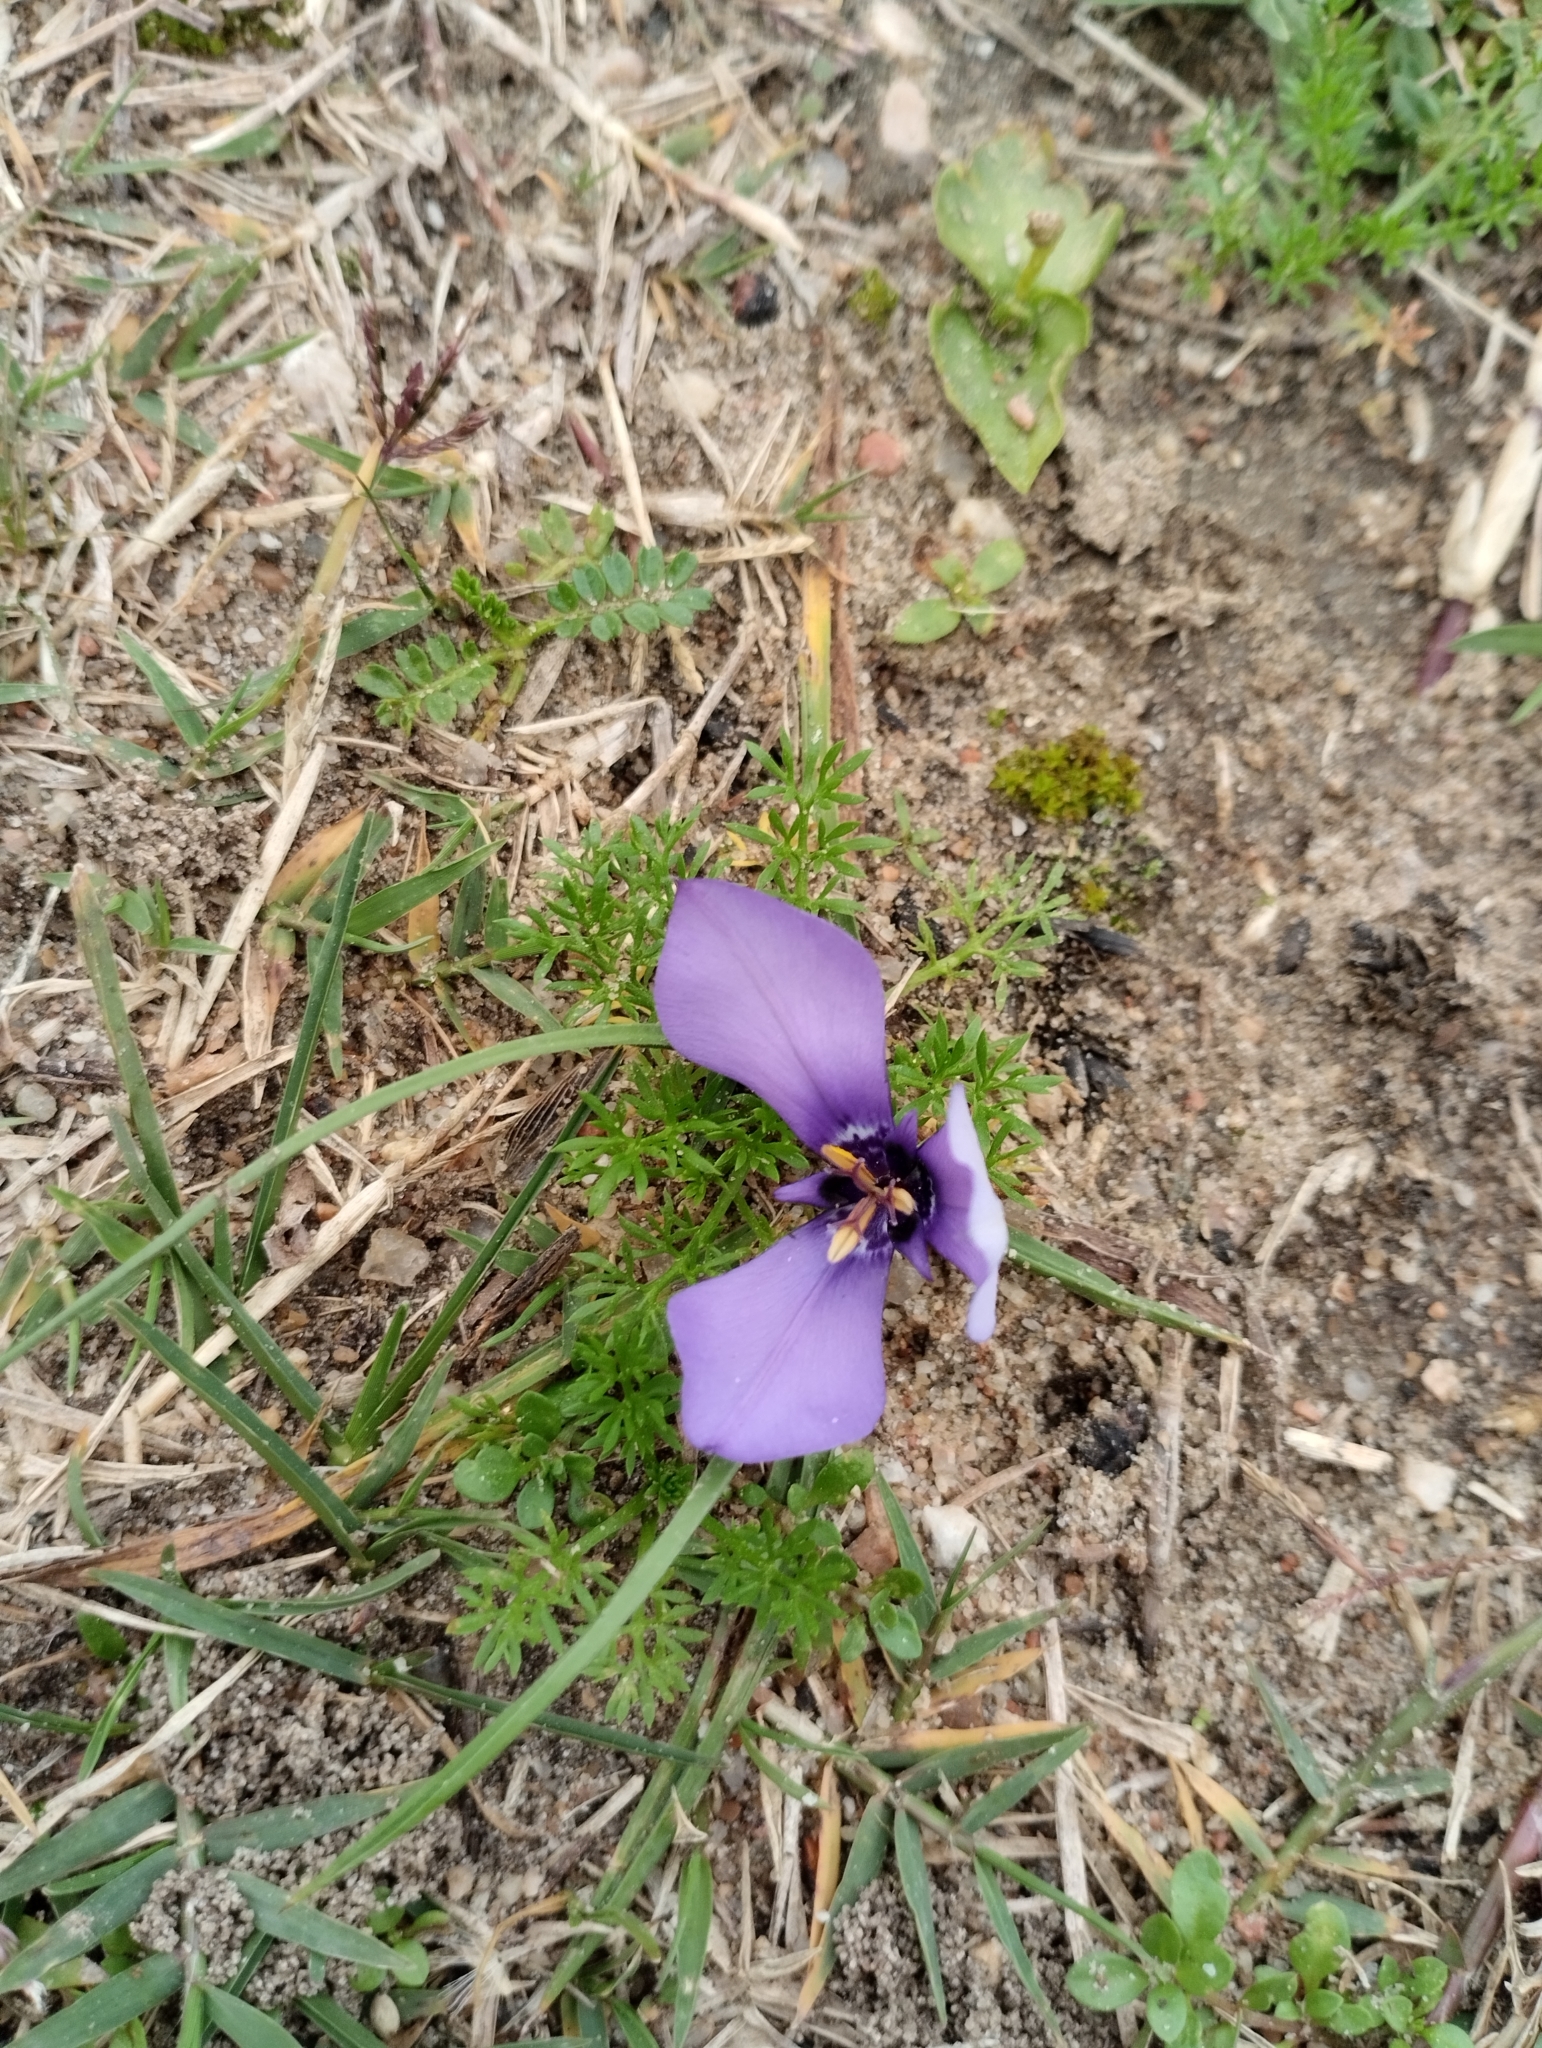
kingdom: Plantae
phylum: Tracheophyta
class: Liliopsida
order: Asparagales
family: Iridaceae
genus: Herbertia
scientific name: Herbertia lahue
